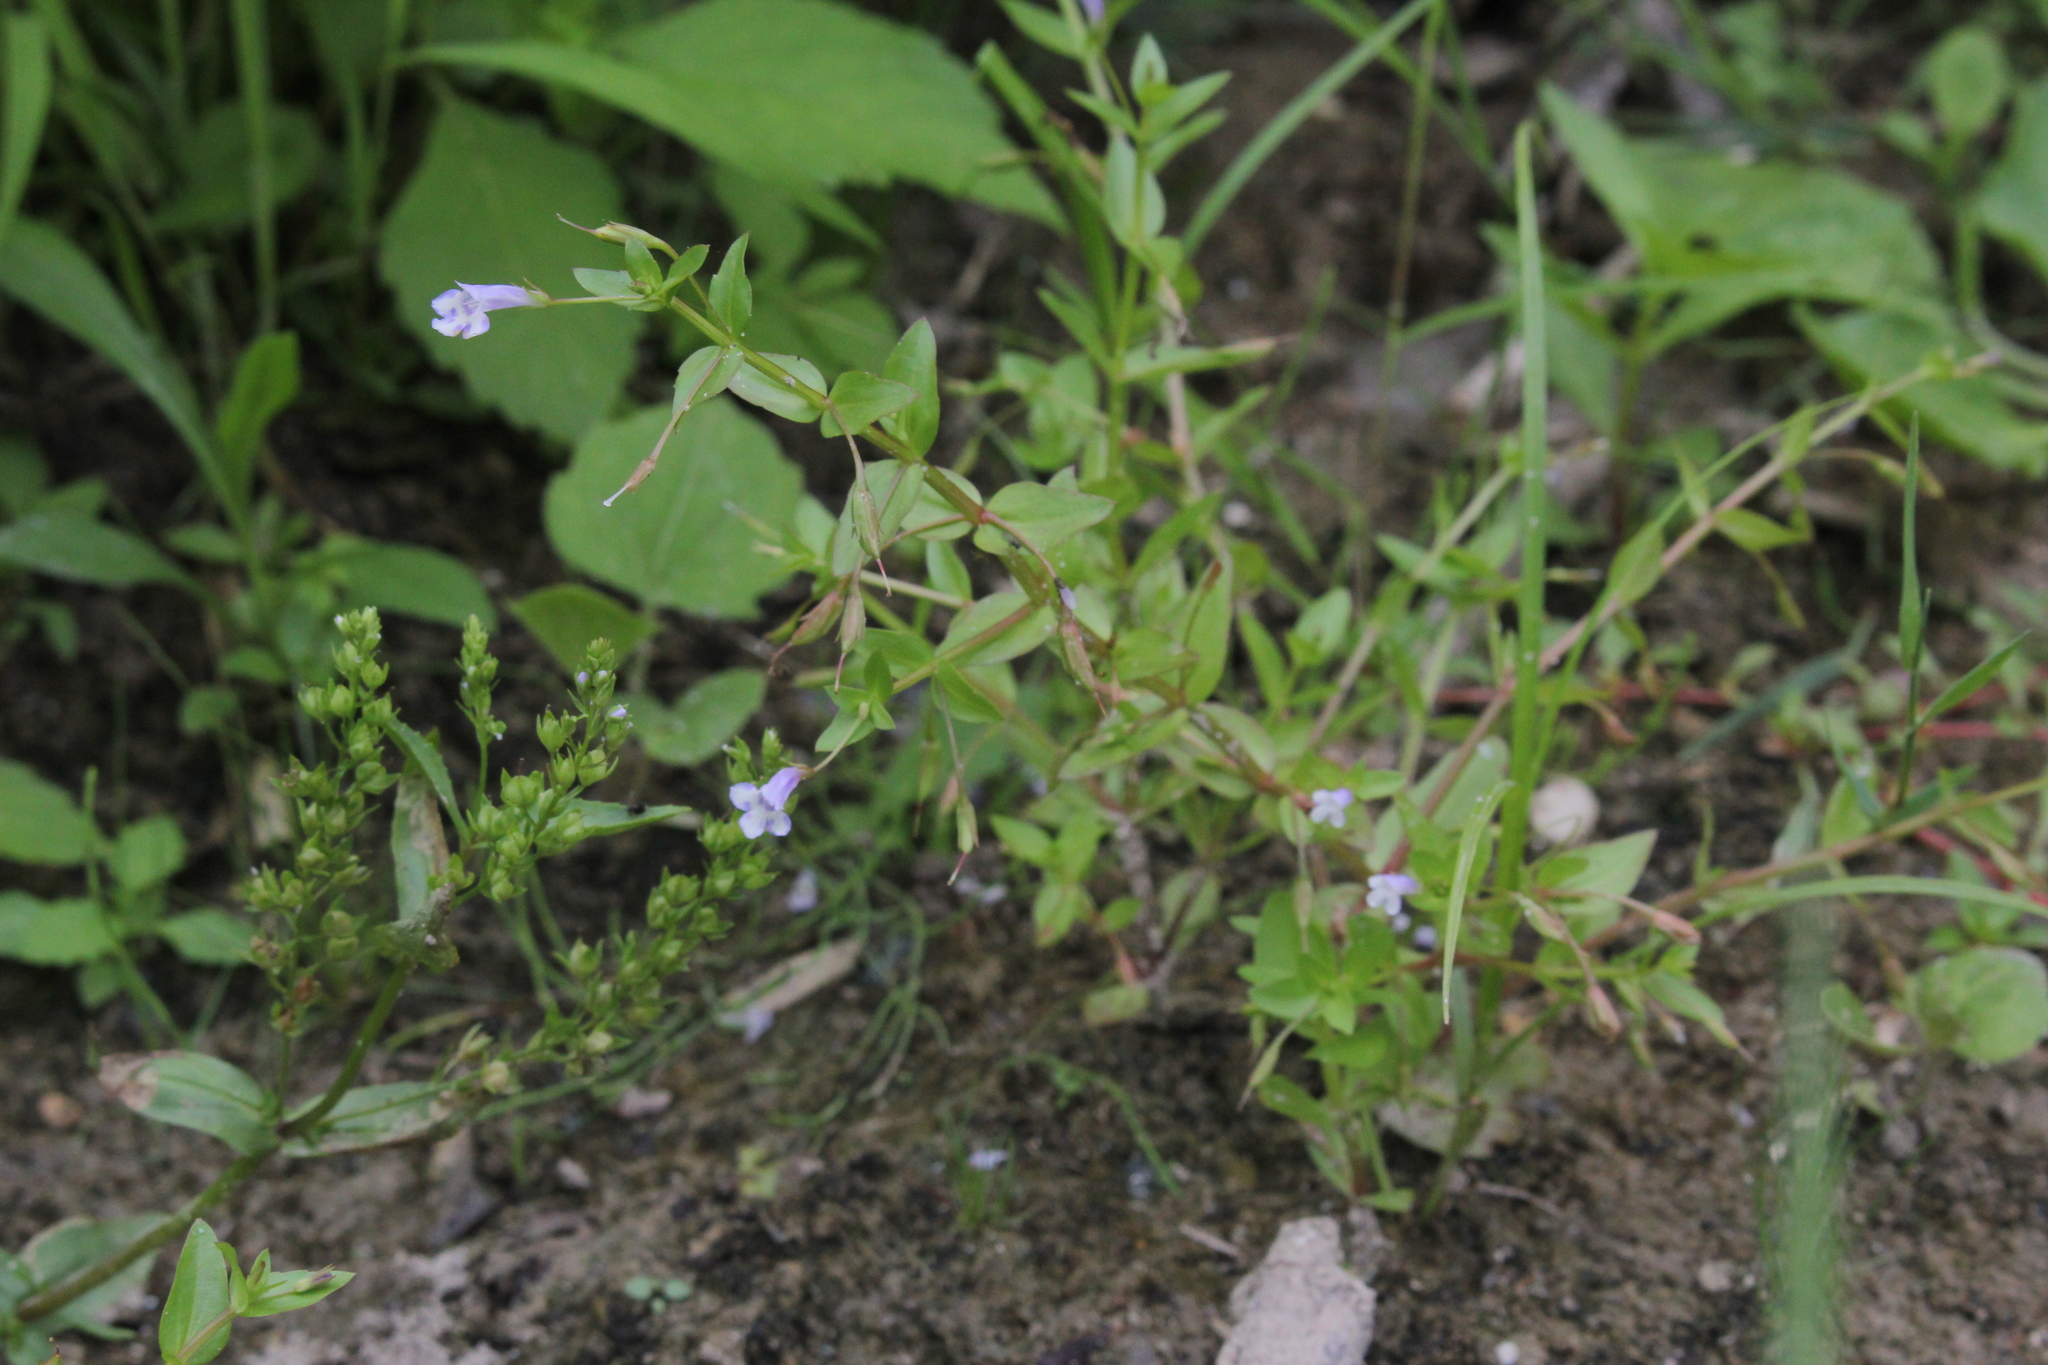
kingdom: Plantae
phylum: Tracheophyta
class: Magnoliopsida
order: Lamiales
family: Linderniaceae
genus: Lindernia
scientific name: Lindernia dubia
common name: Annual false pimpernel
